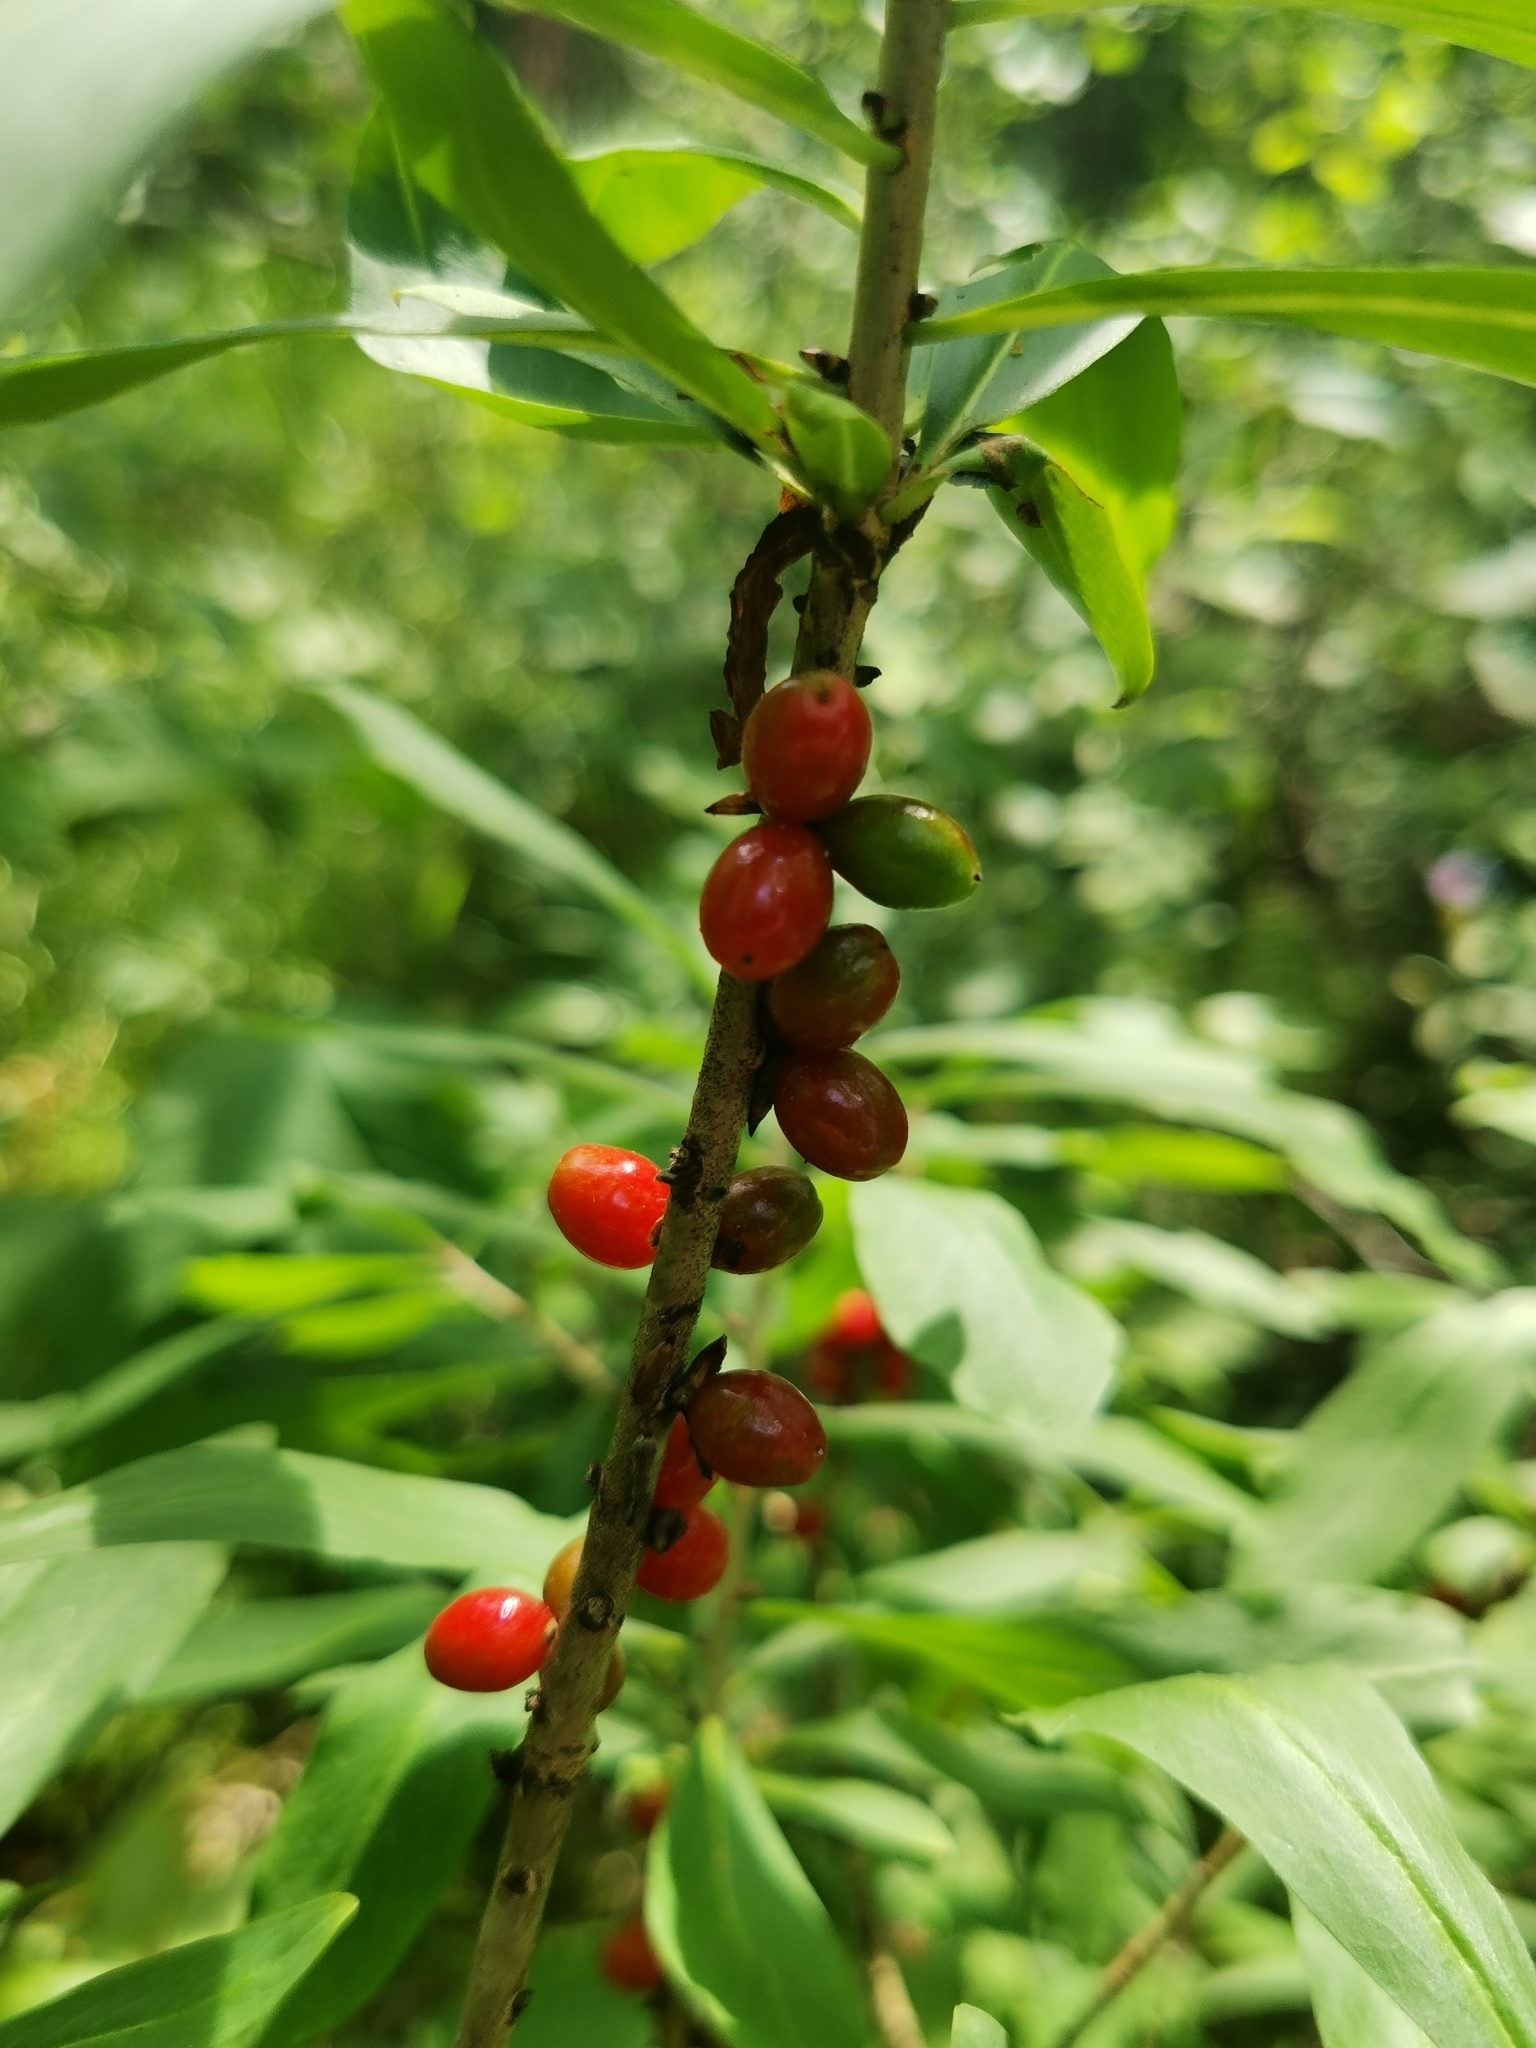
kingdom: Plantae
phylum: Tracheophyta
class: Magnoliopsida
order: Malvales
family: Thymelaeaceae
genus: Daphne
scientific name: Daphne mezereum
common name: Mezereon
